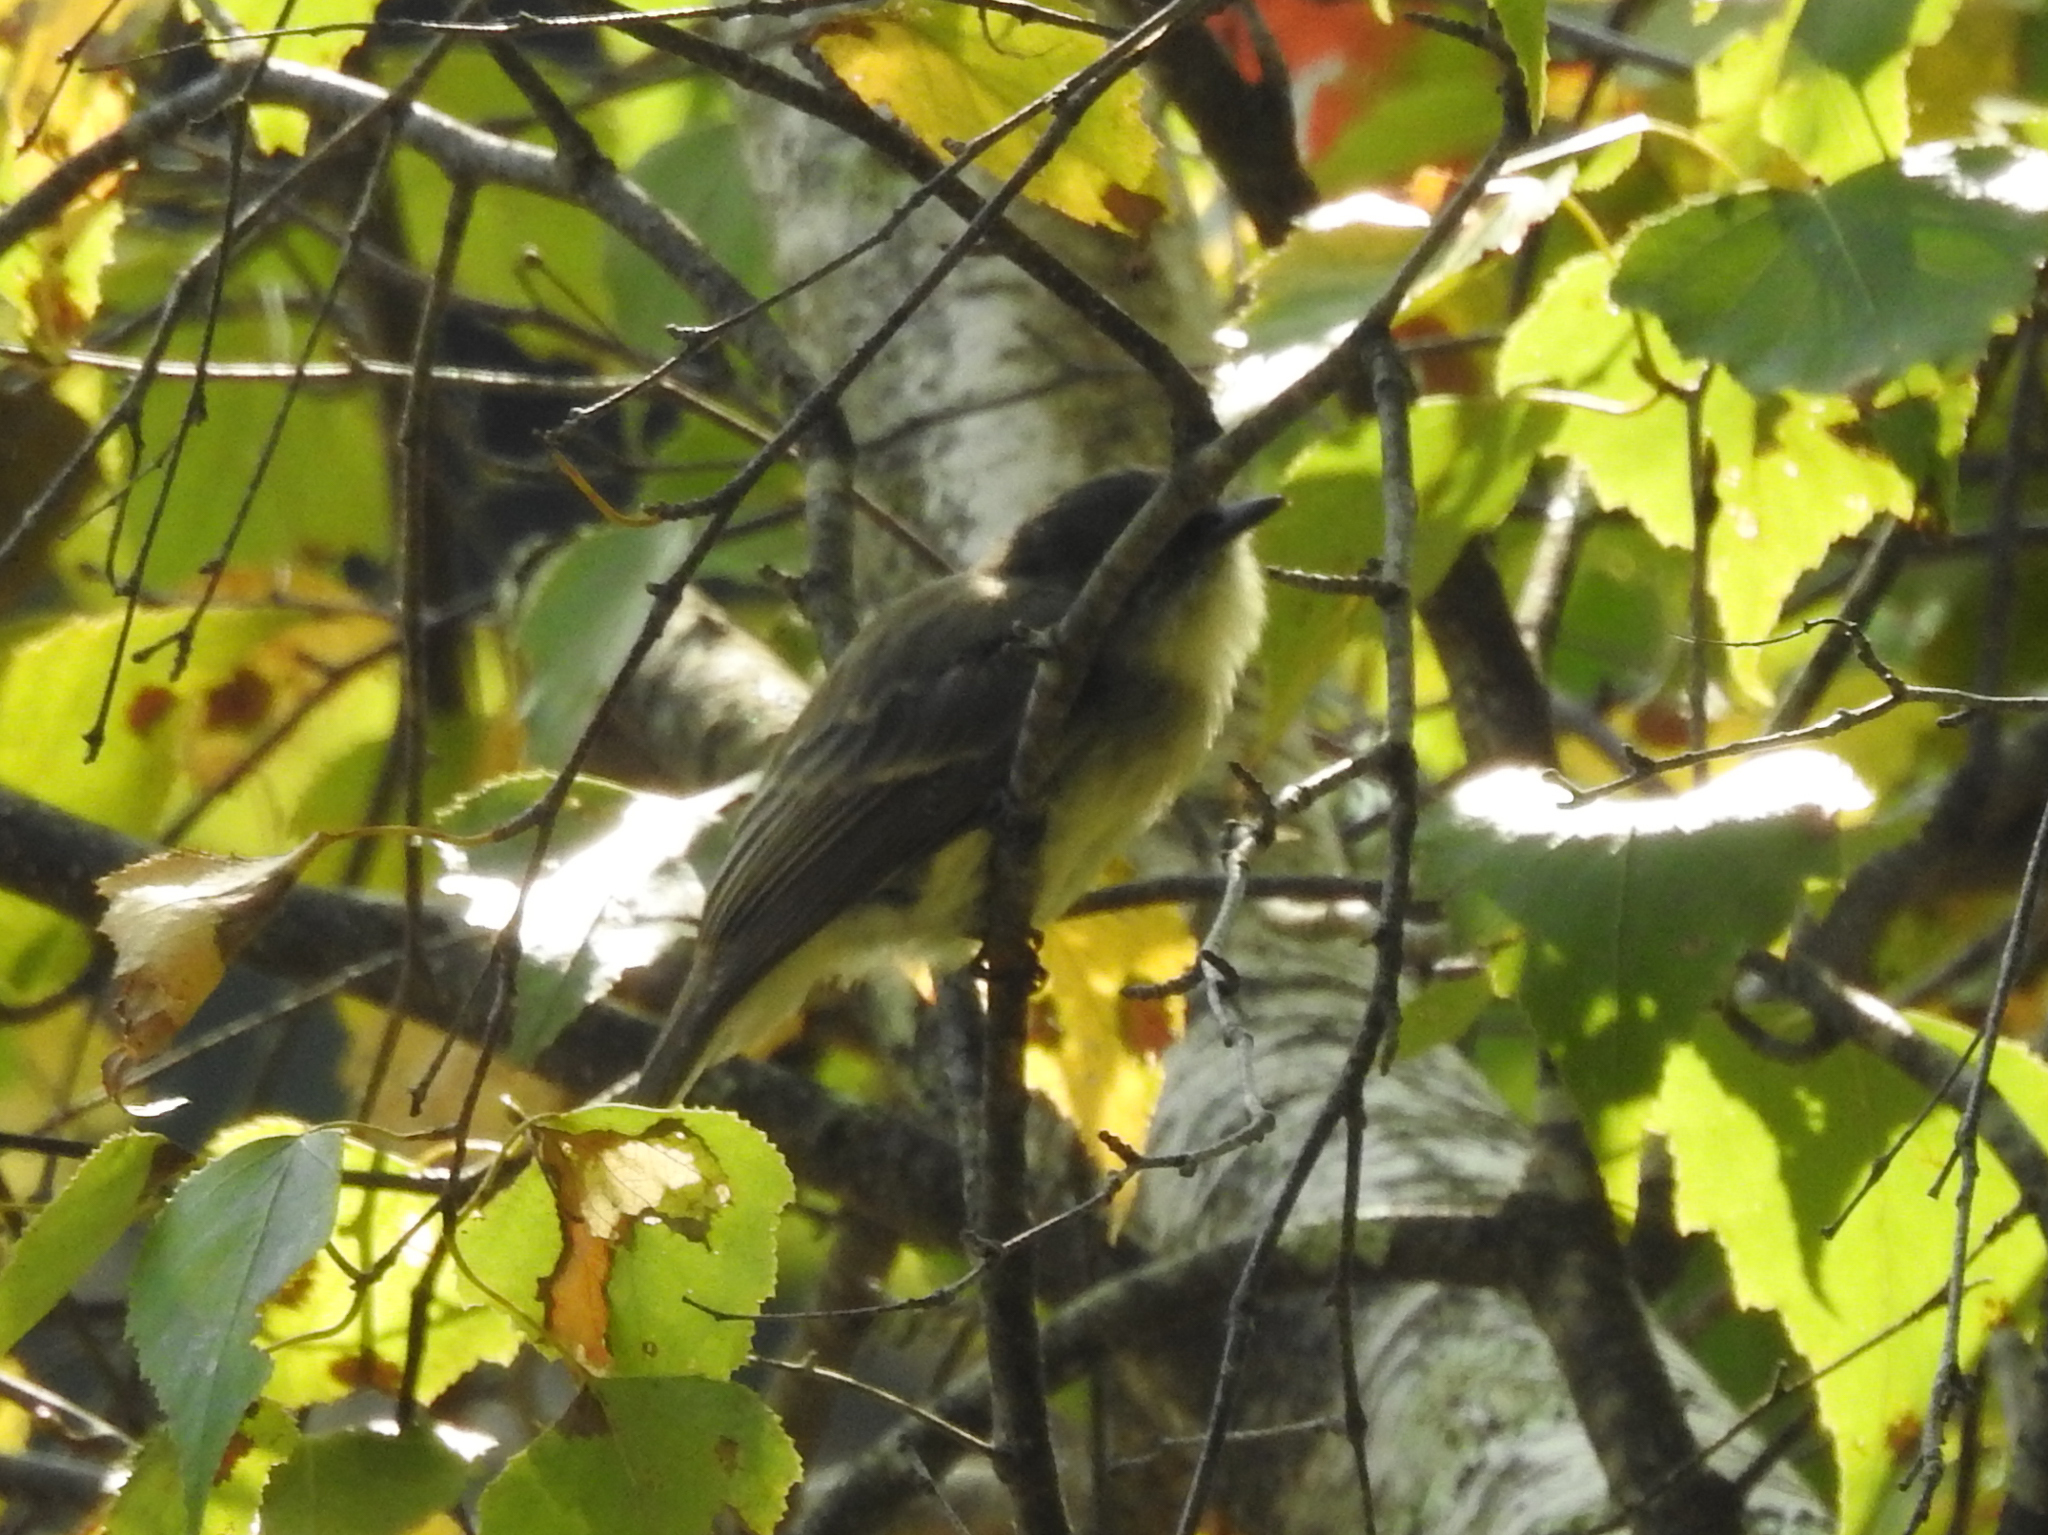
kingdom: Animalia
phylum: Chordata
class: Aves
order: Passeriformes
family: Tyrannidae
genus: Sayornis
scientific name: Sayornis phoebe
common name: Eastern phoebe
